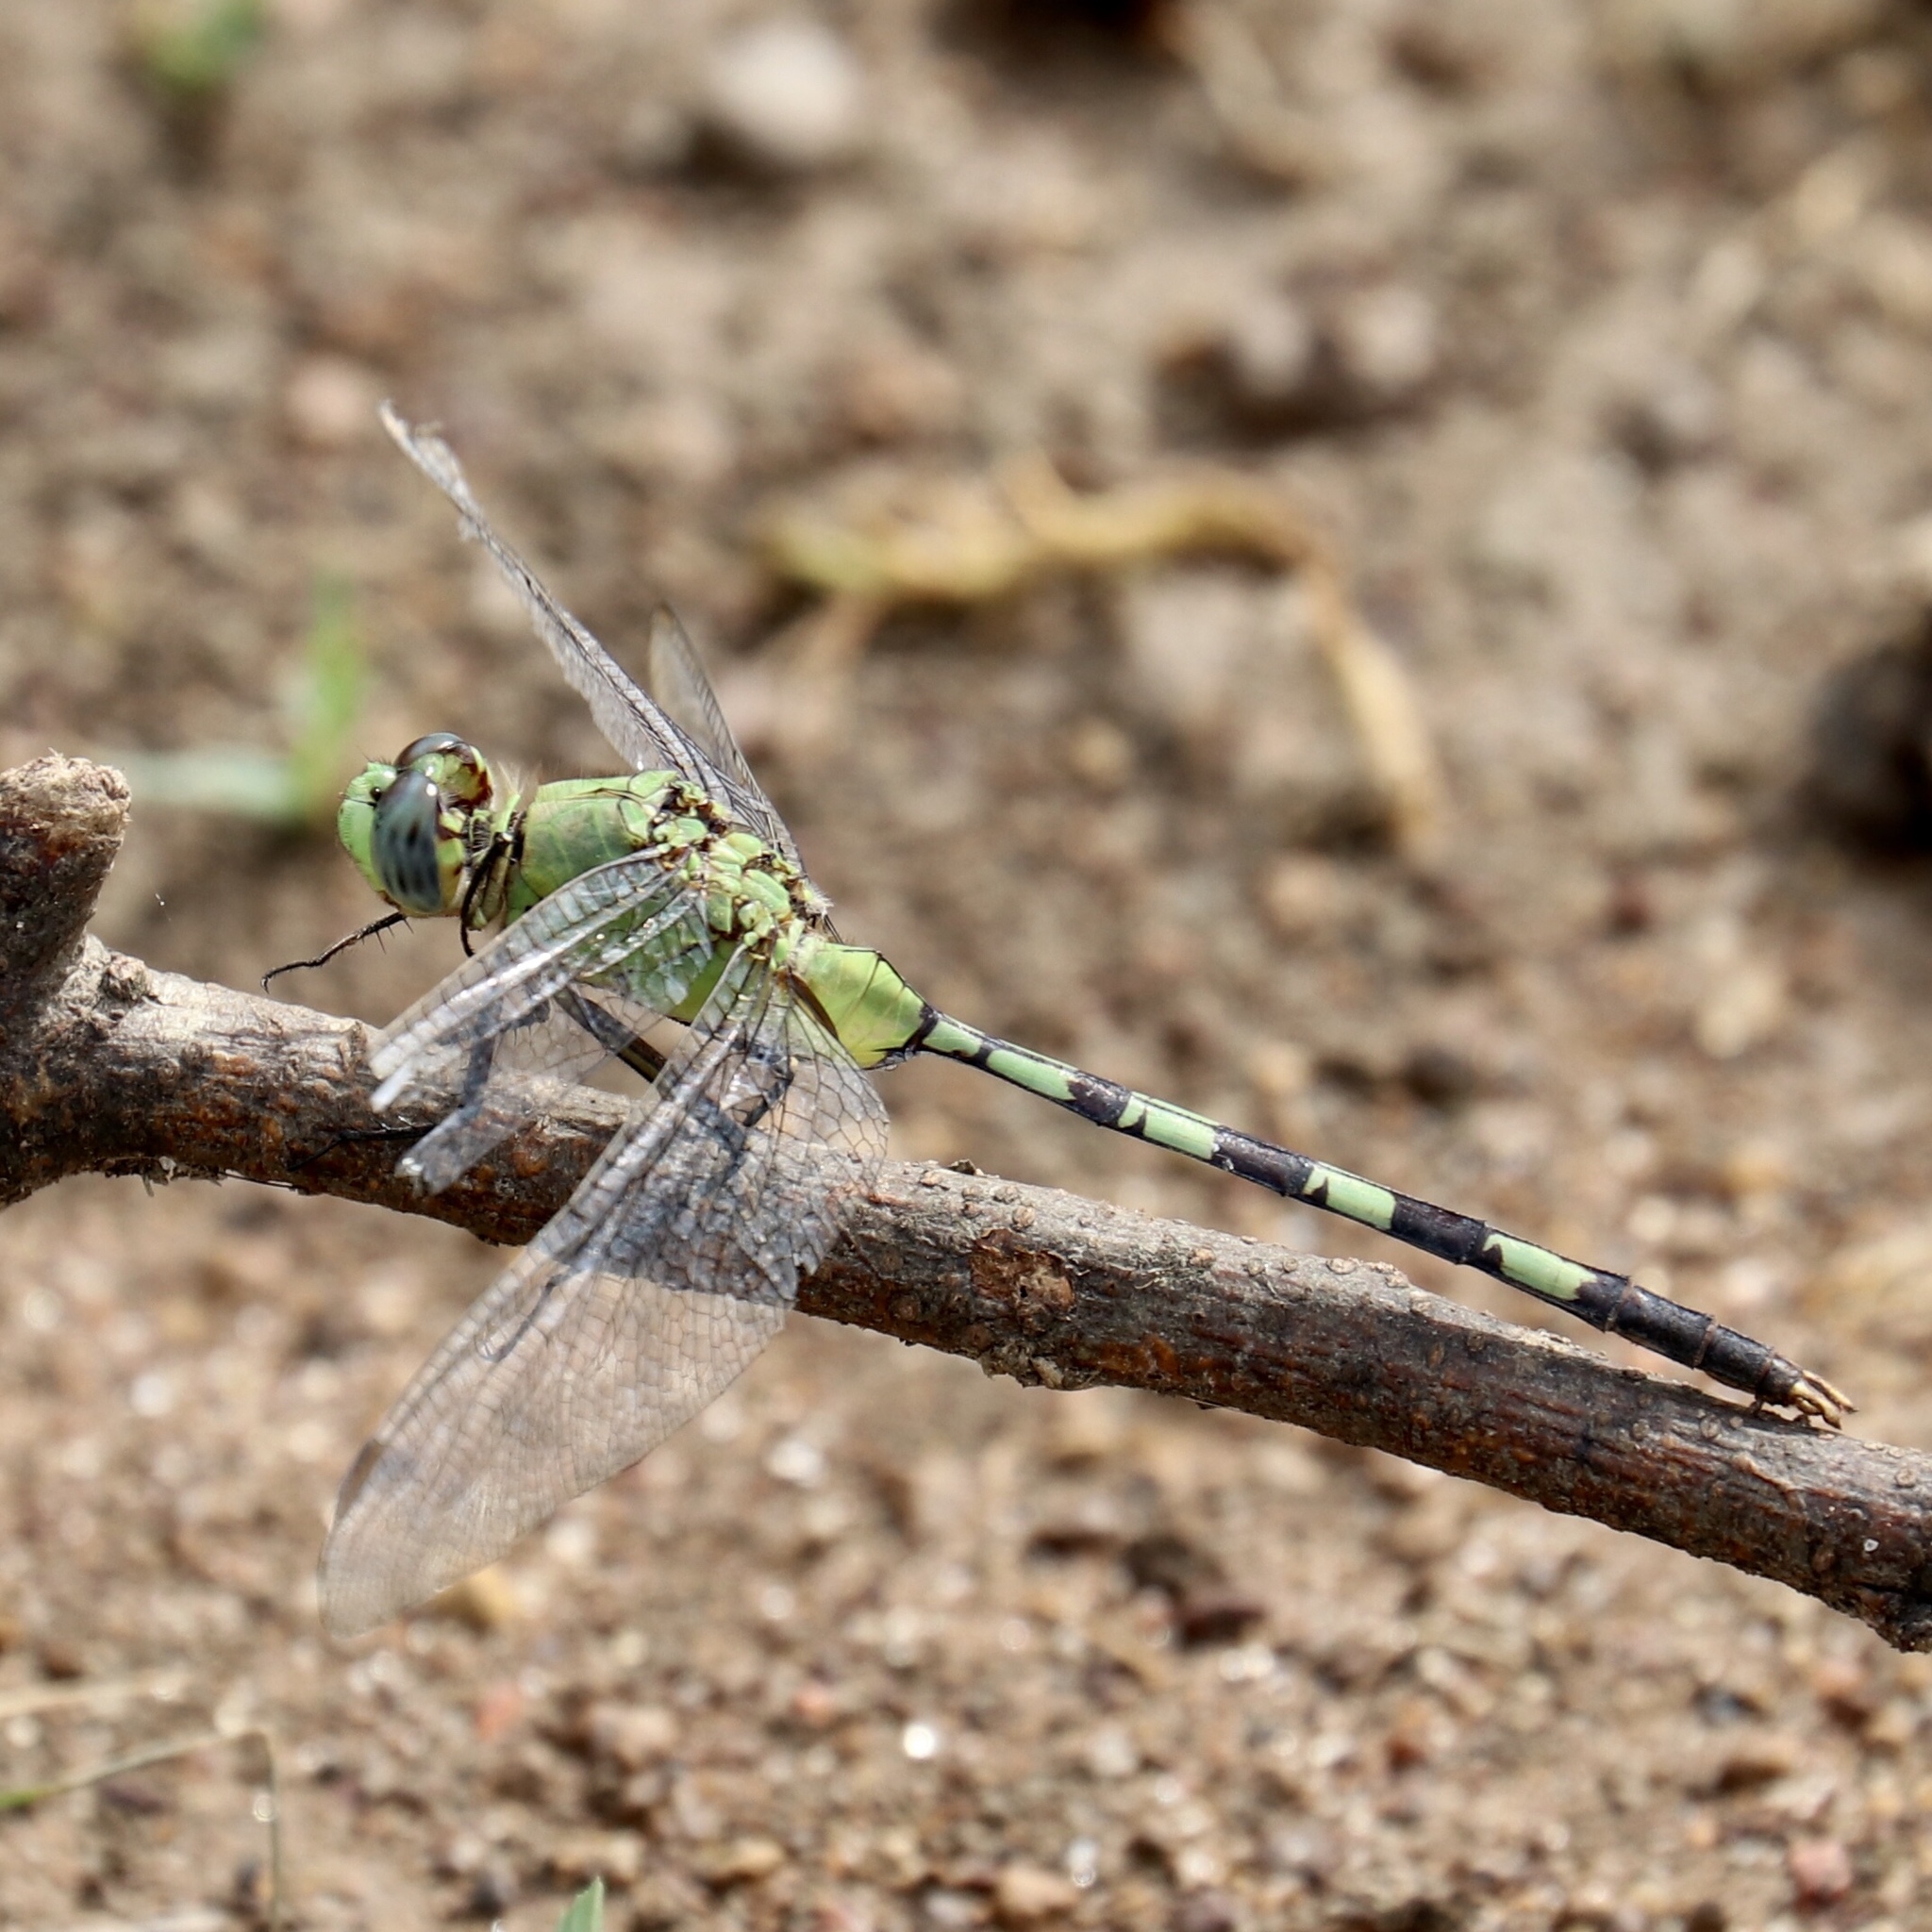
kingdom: Animalia
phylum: Arthropoda
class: Insecta
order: Odonata
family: Libellulidae
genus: Erythemis
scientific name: Erythemis vesiculosa
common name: Great pondhawk
